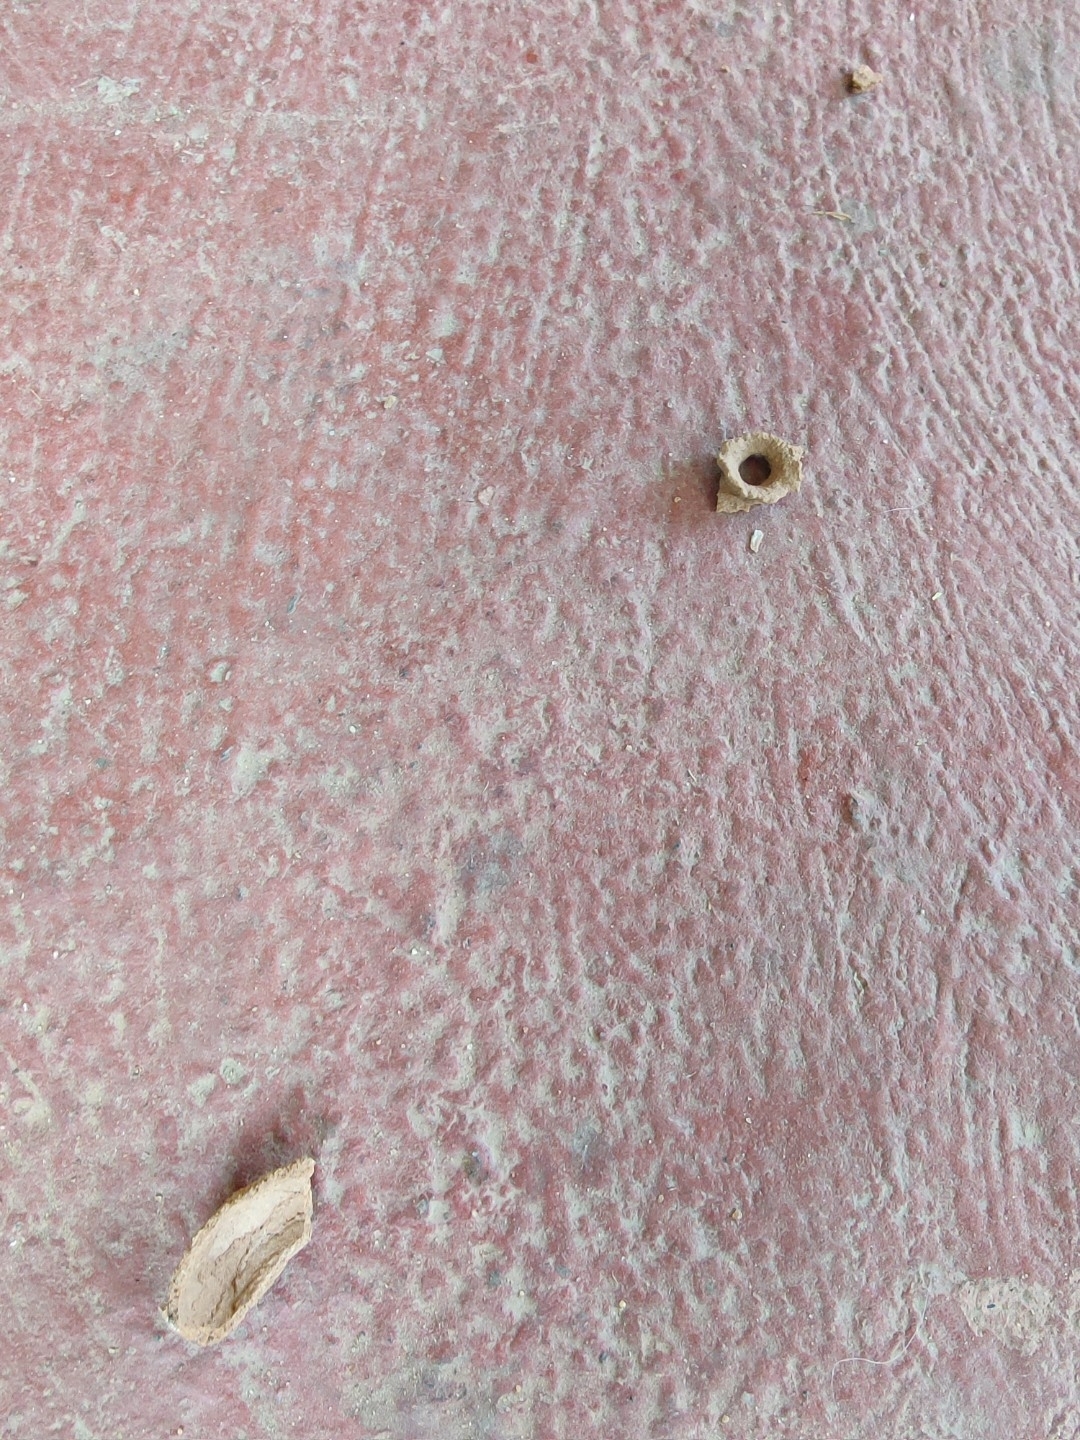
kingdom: Animalia
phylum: Arthropoda
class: Insecta
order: Hymenoptera
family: Eumenidae
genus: Delta
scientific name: Delta conoideum
